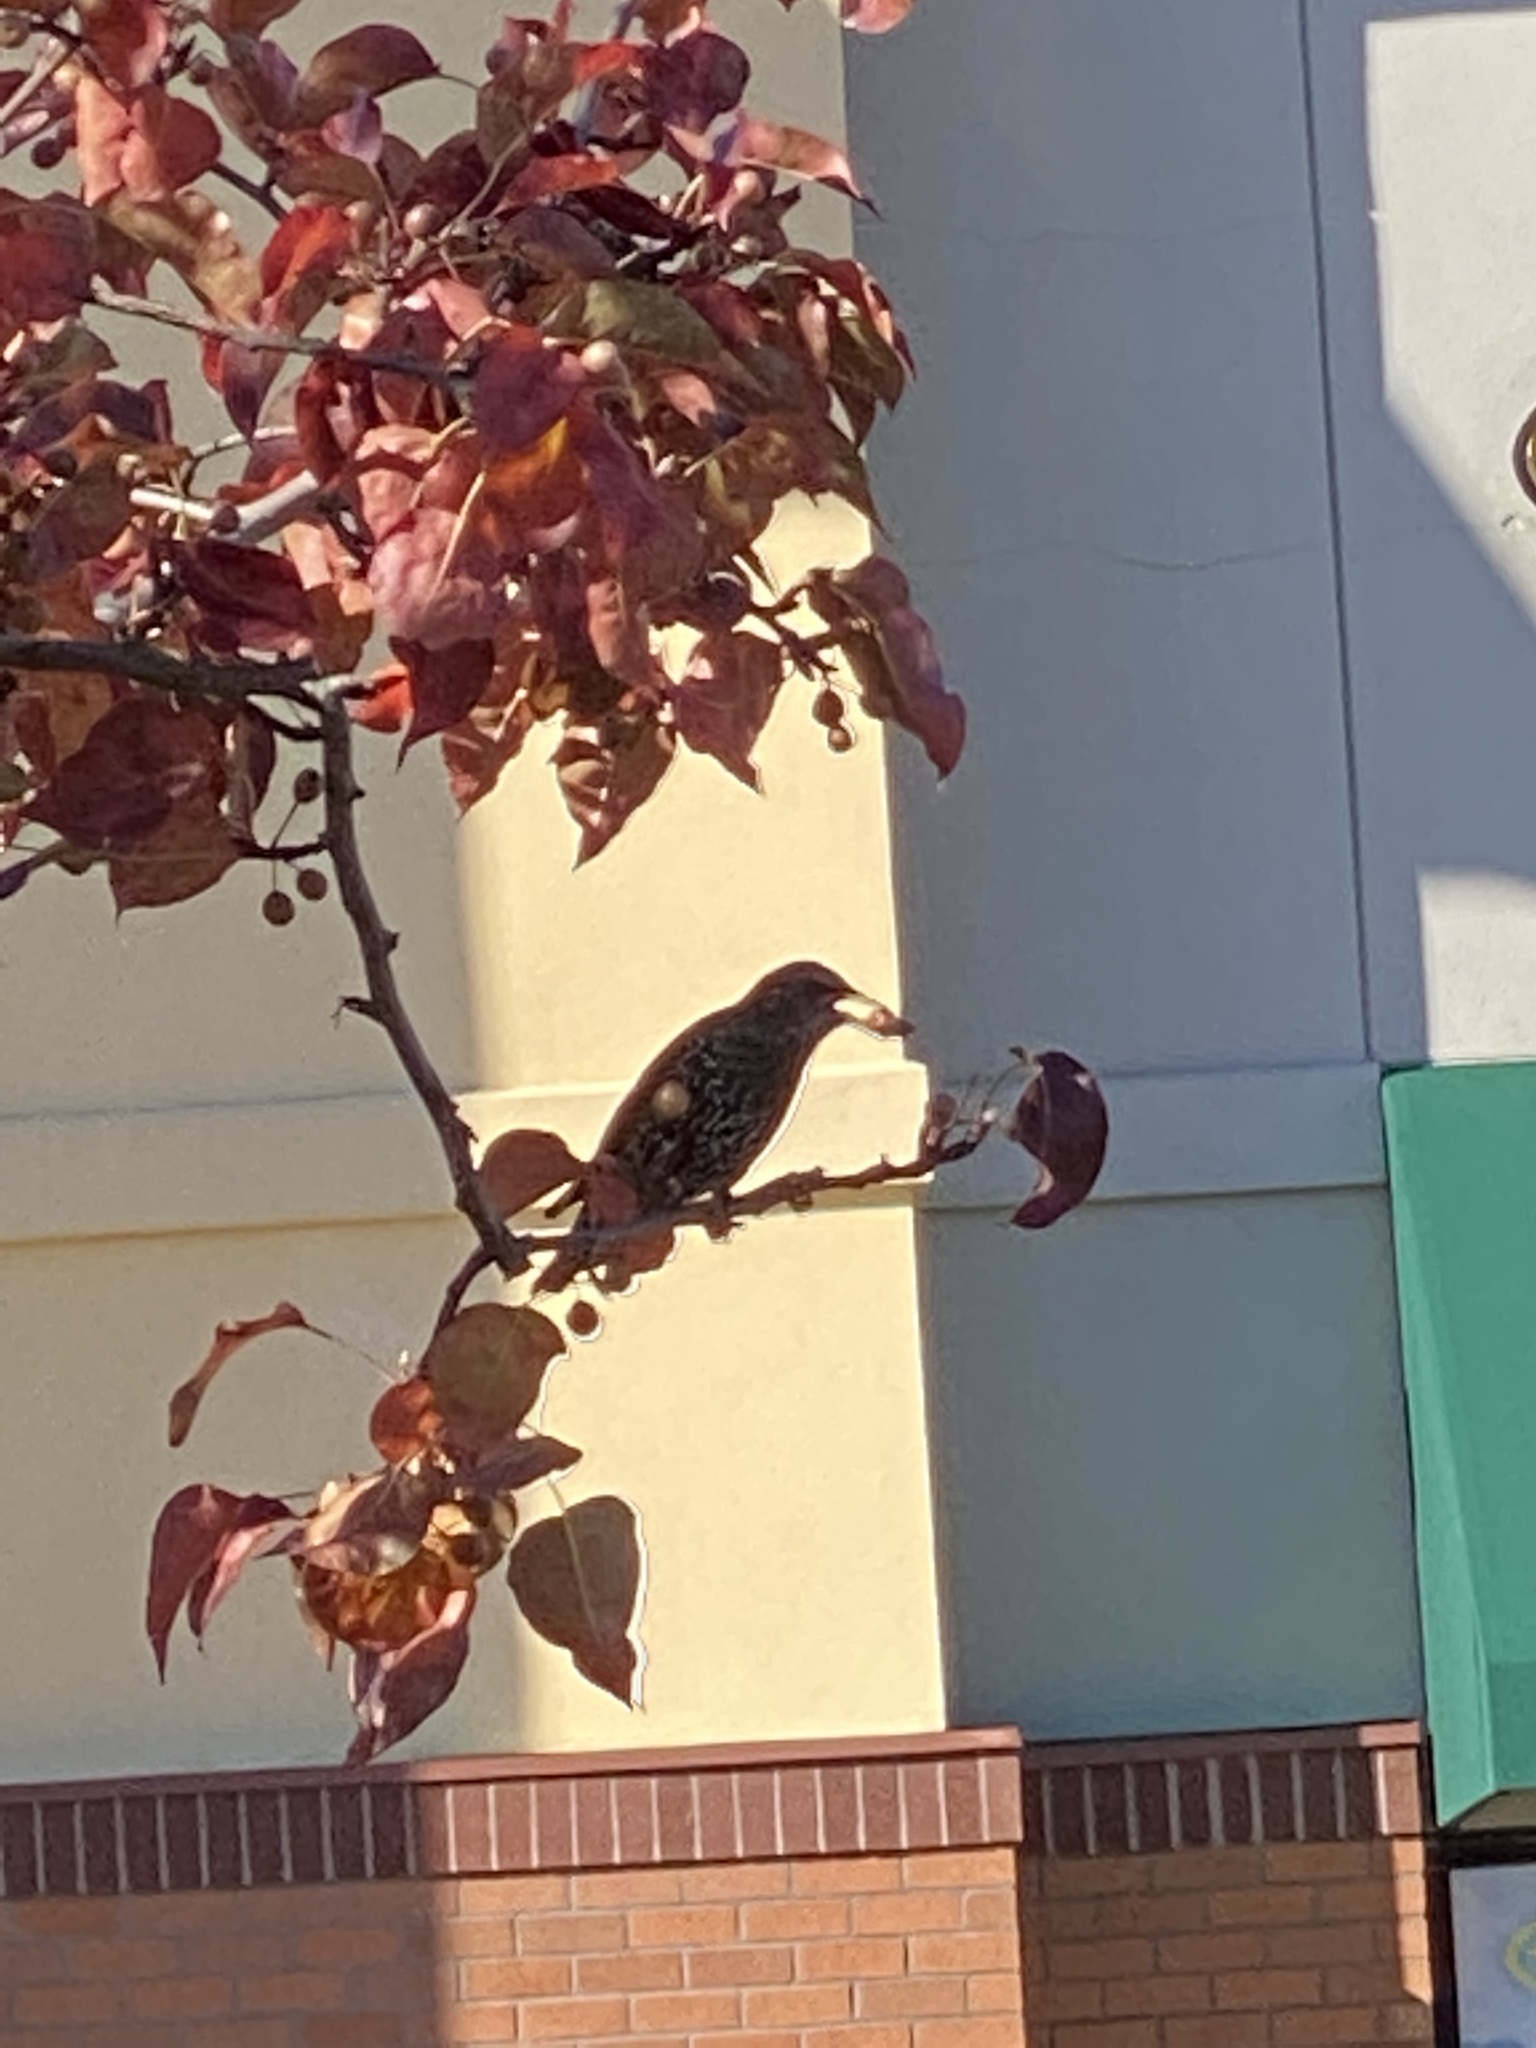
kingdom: Animalia
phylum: Chordata
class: Aves
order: Passeriformes
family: Sturnidae
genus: Sturnus
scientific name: Sturnus vulgaris
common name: Common starling
